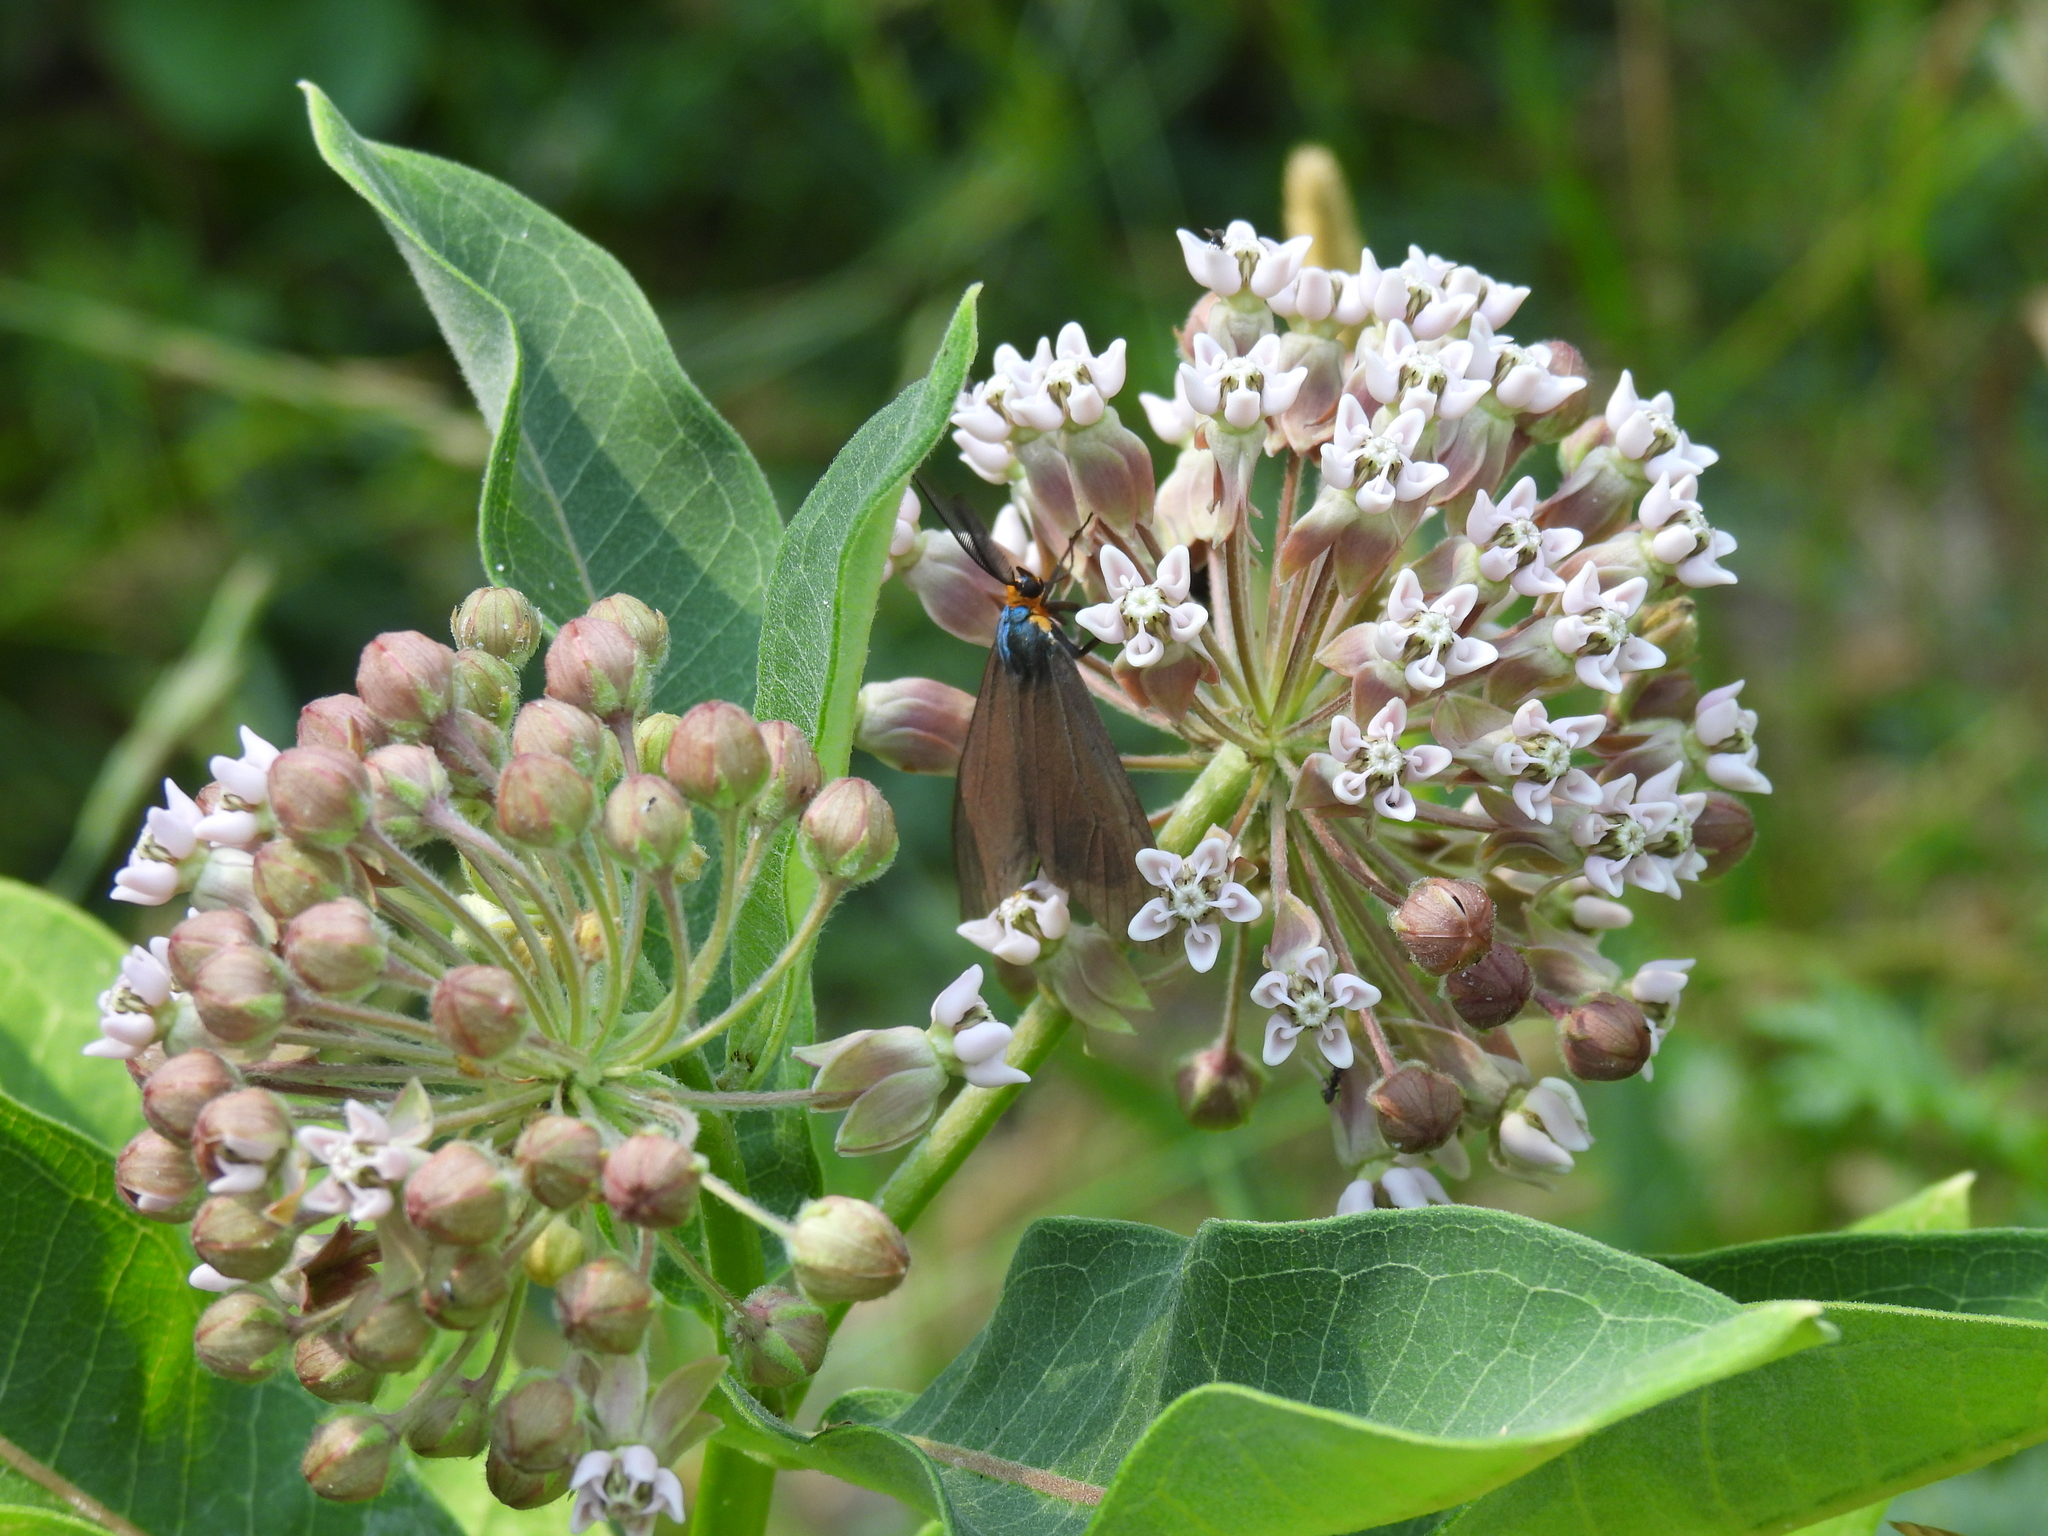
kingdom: Animalia
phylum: Arthropoda
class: Insecta
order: Lepidoptera
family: Erebidae
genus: Ctenucha
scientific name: Ctenucha virginica
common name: Virginia ctenucha moth
